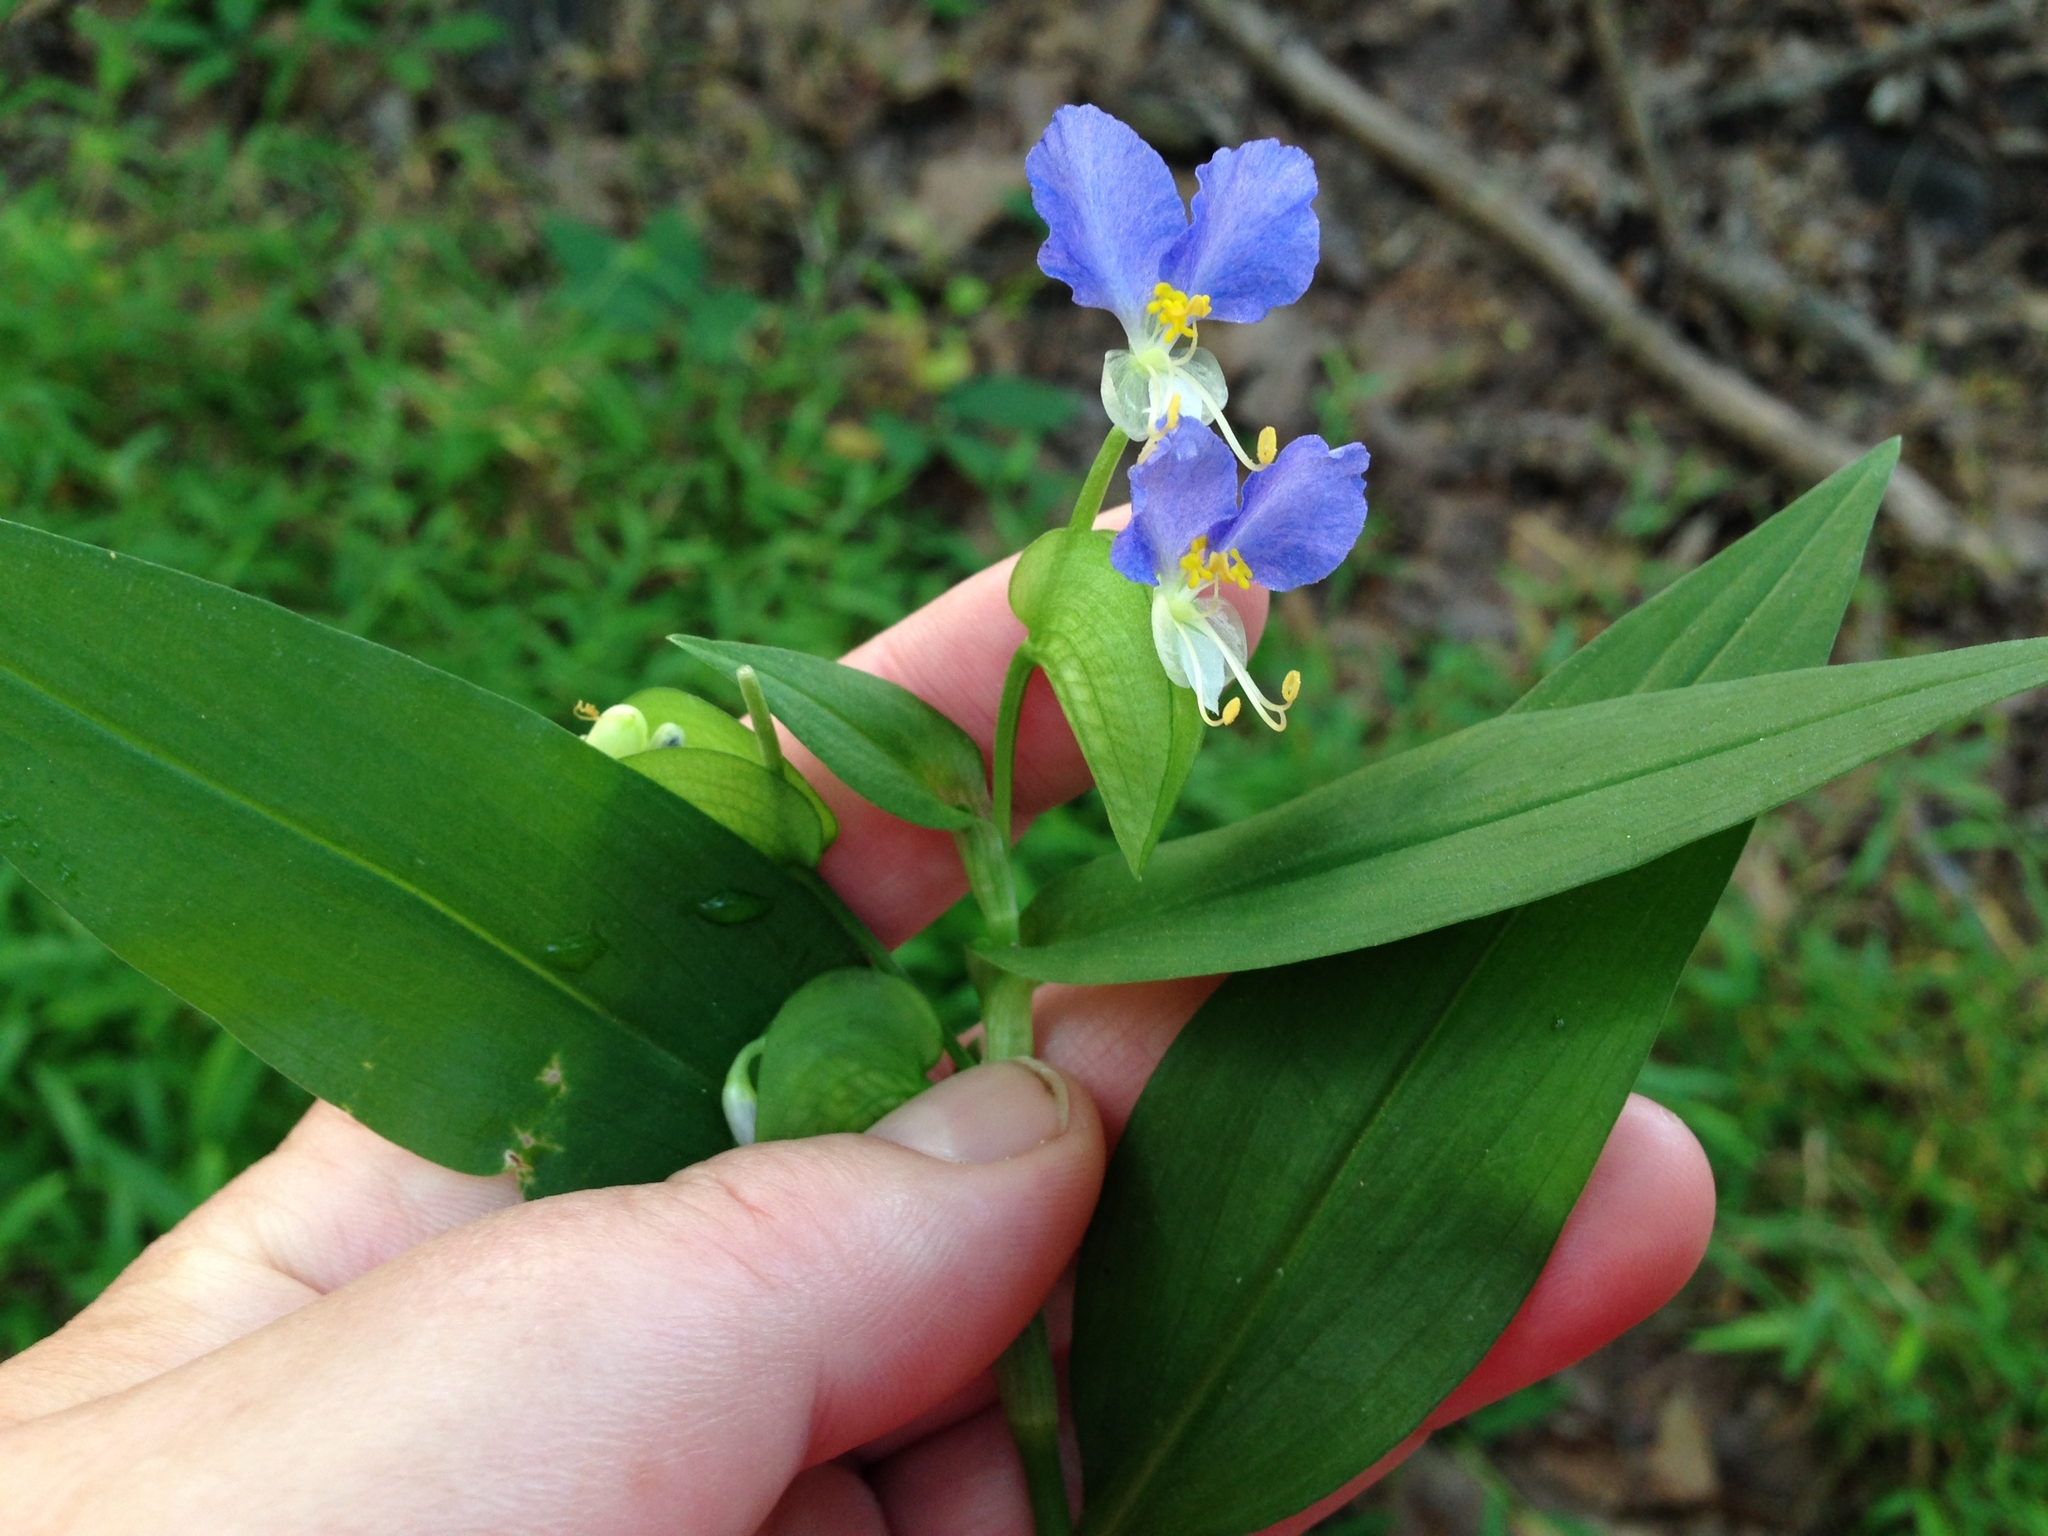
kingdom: Plantae
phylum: Tracheophyta
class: Liliopsida
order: Commelinales
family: Commelinaceae
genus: Commelina
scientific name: Commelina communis
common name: Asiatic dayflower
